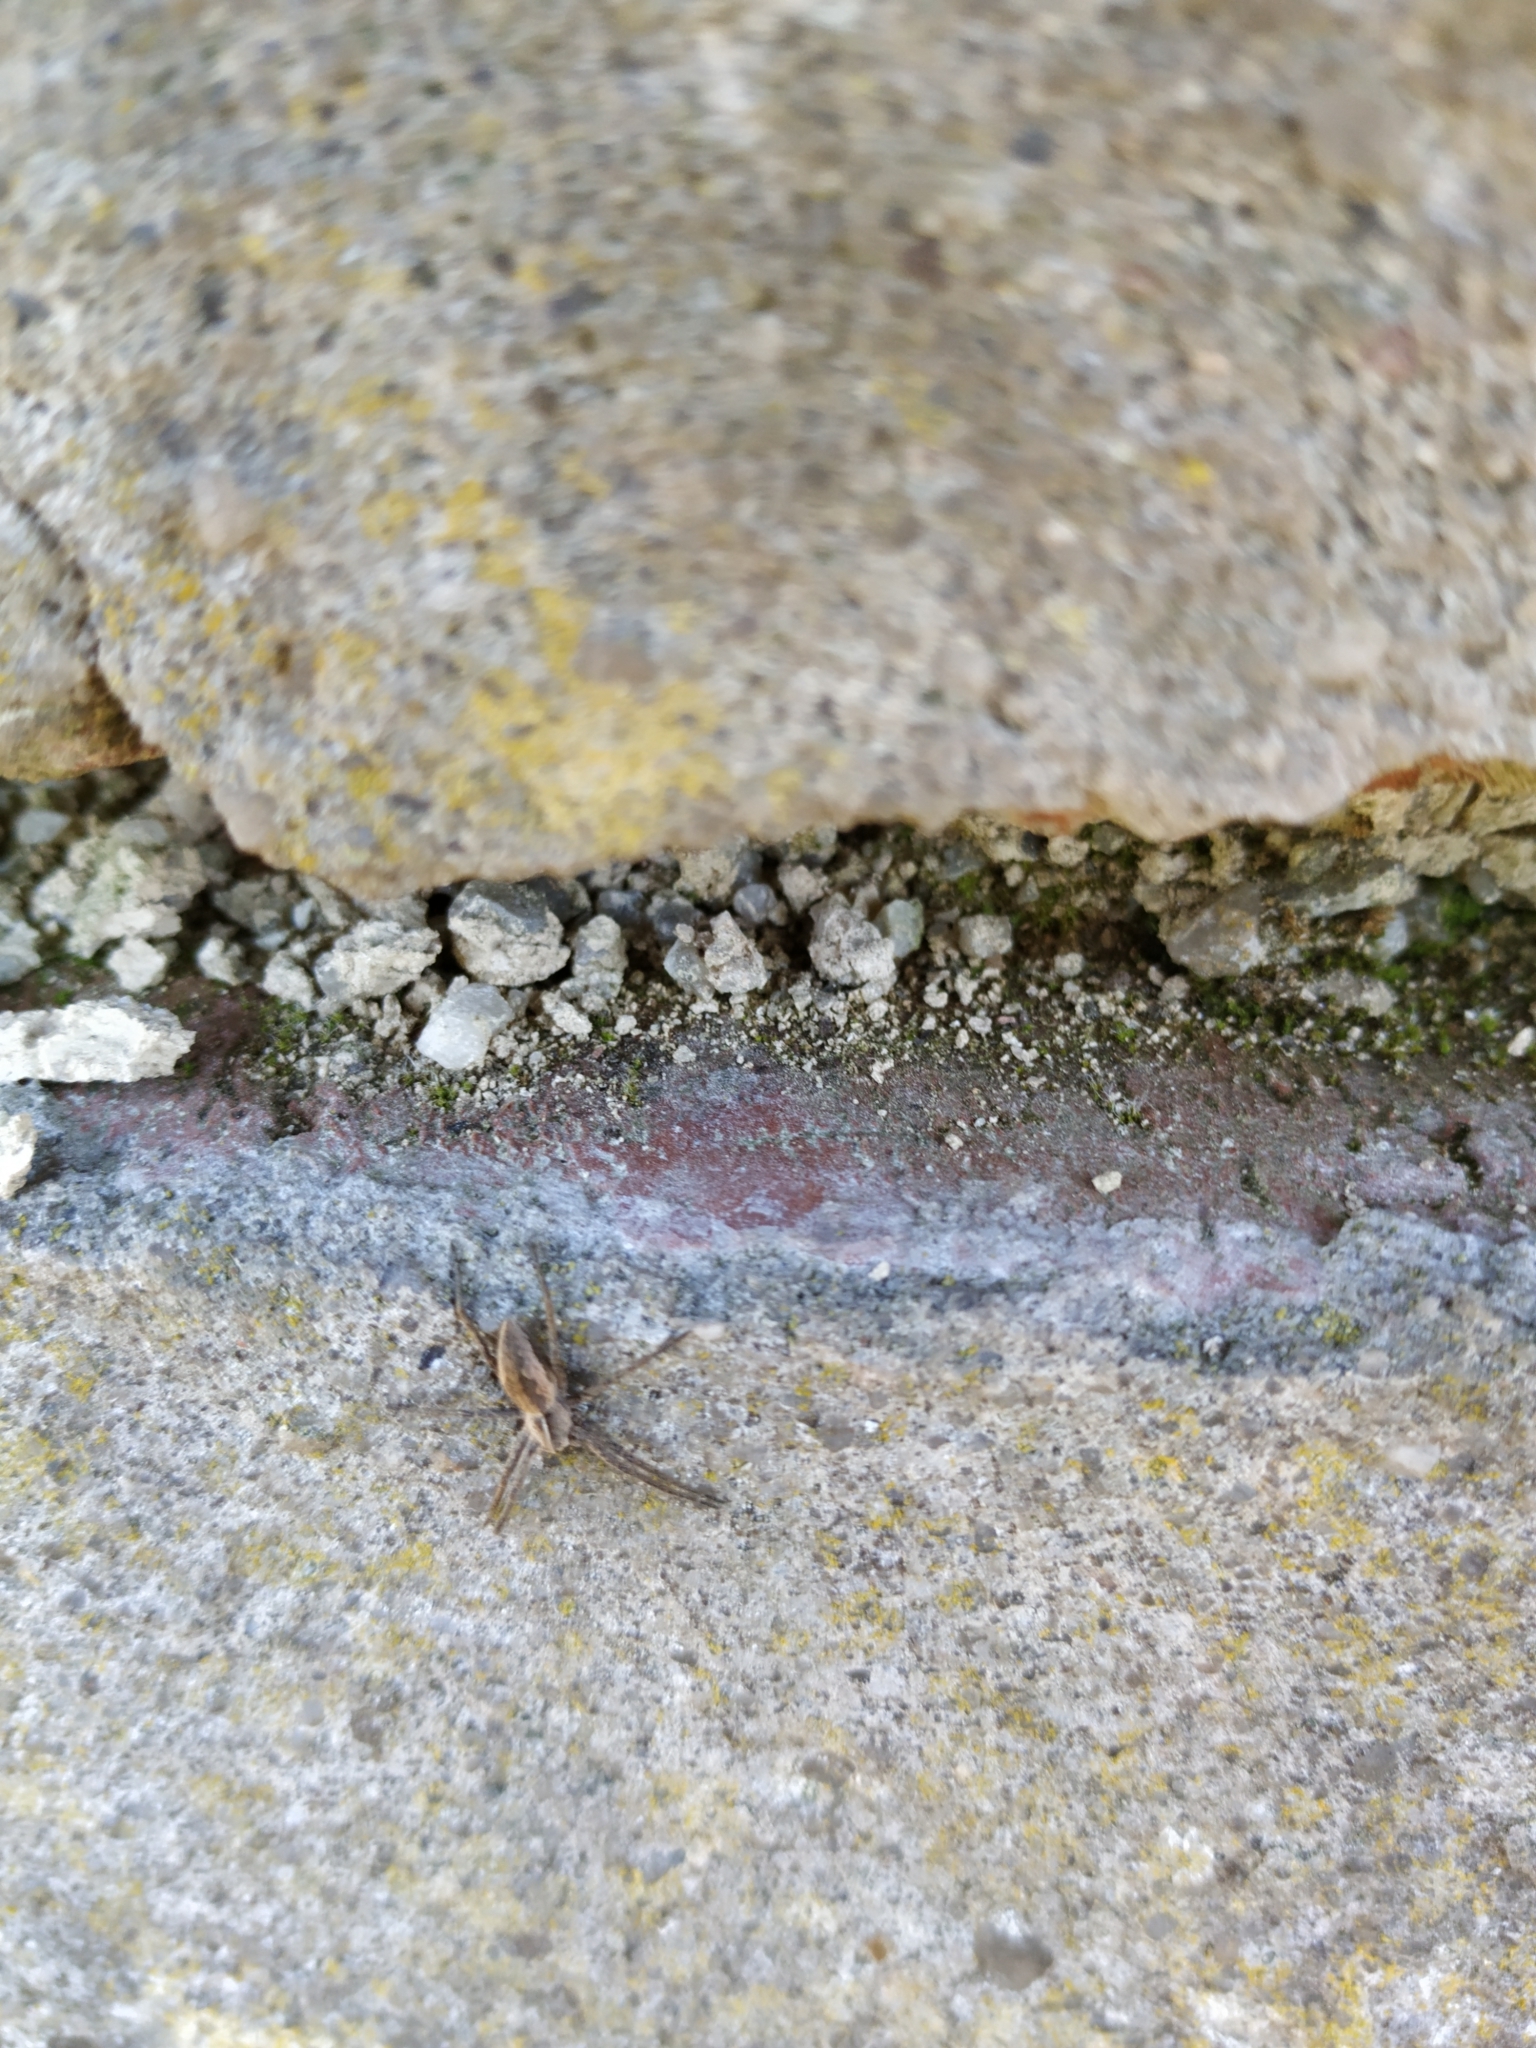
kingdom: Animalia
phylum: Arthropoda
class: Arachnida
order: Araneae
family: Pisauridae
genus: Pisaura
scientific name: Pisaura mirabilis
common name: Tent spider
